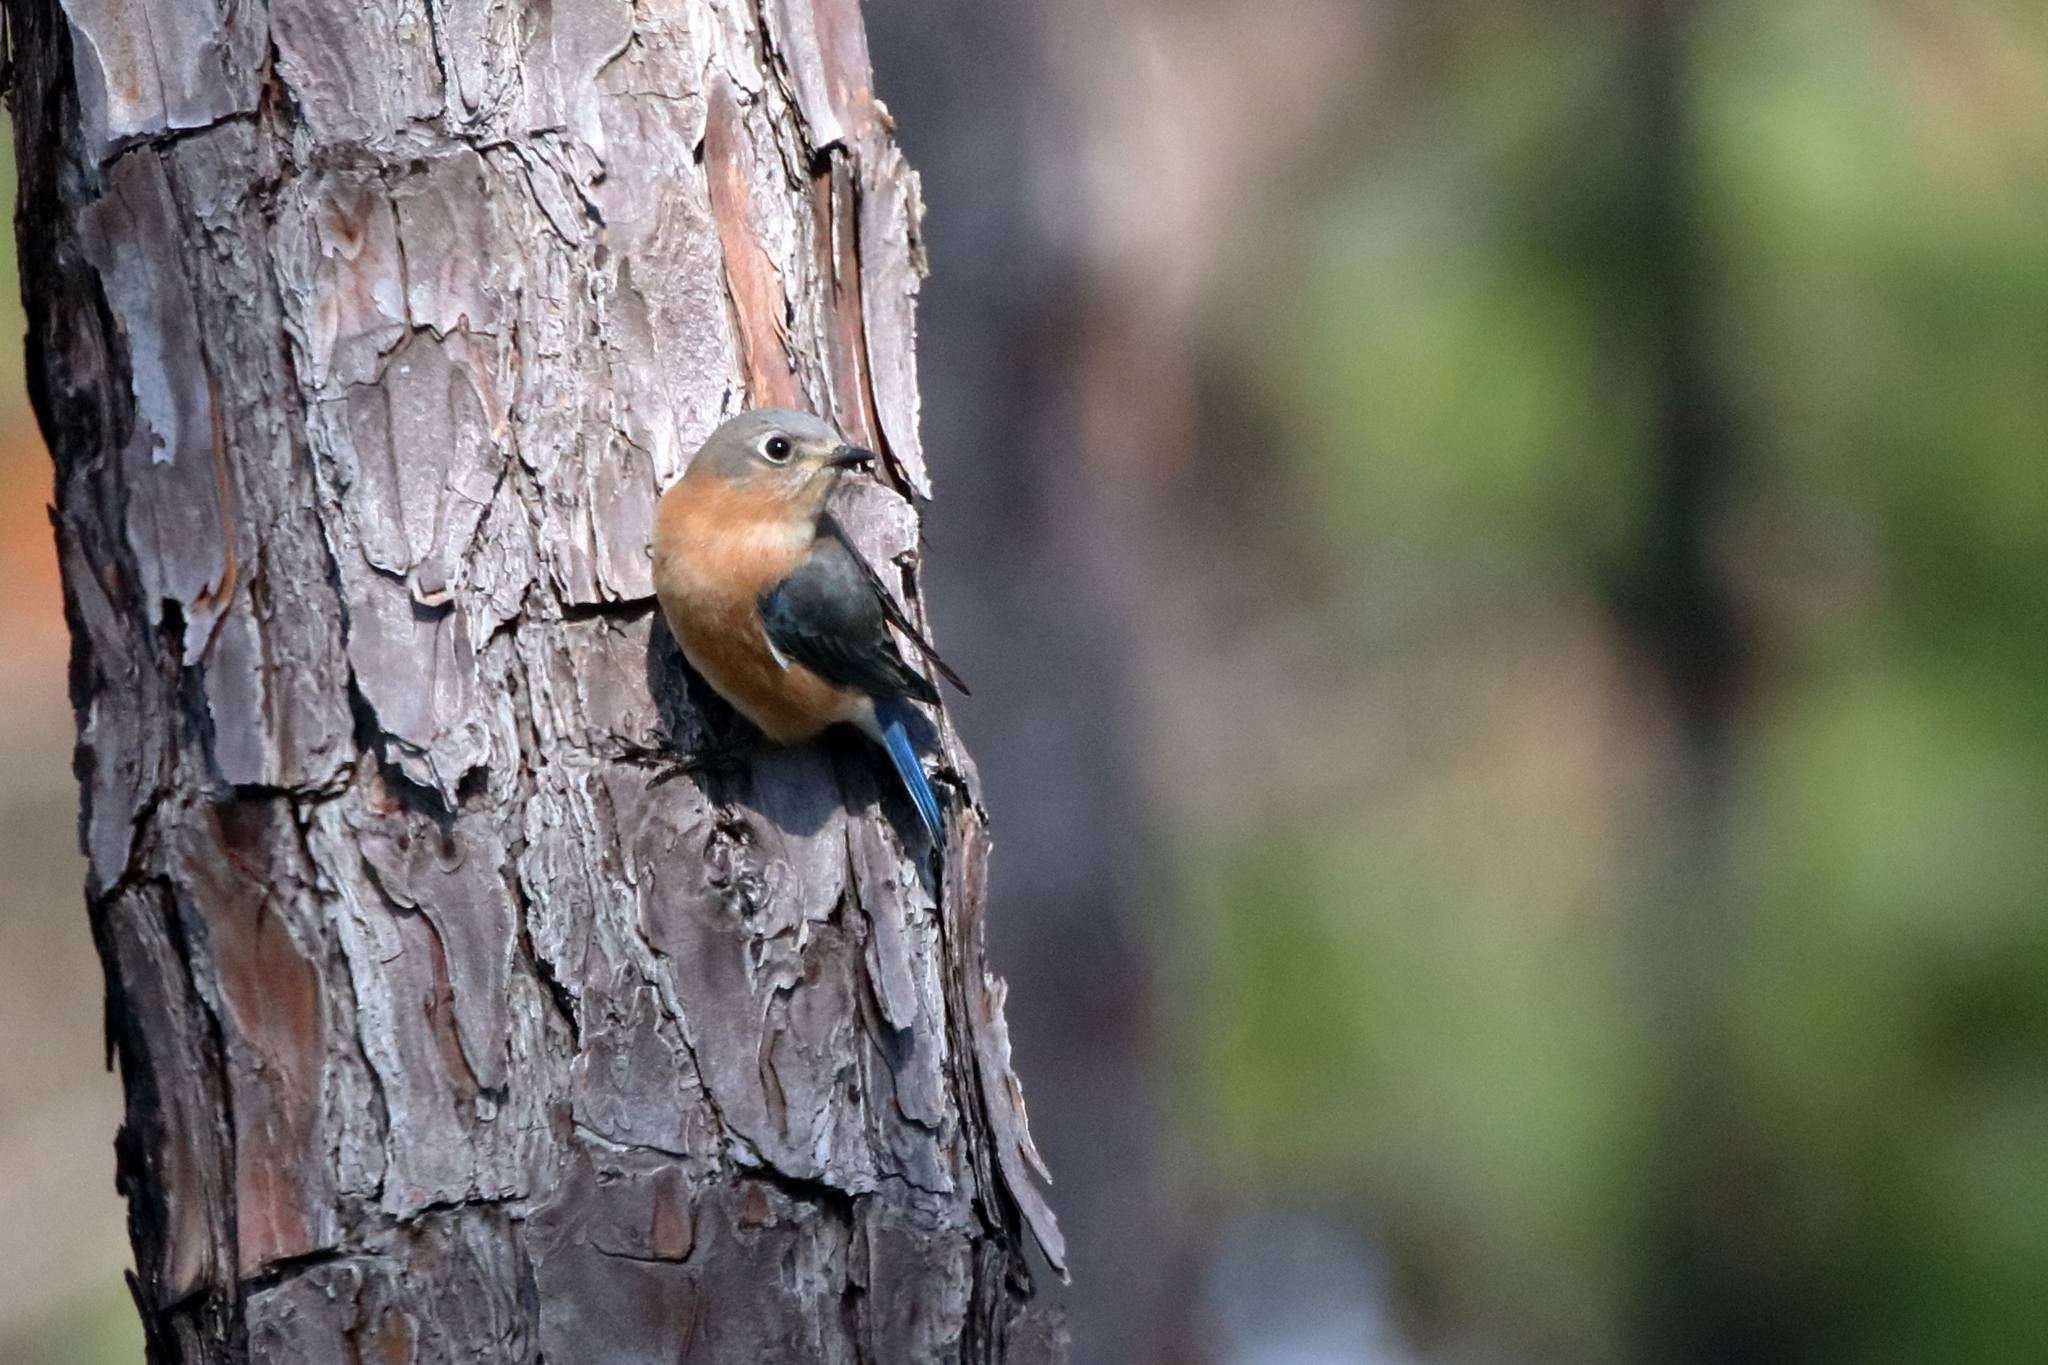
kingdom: Animalia
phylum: Chordata
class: Aves
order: Passeriformes
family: Turdidae
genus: Sialia
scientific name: Sialia sialis
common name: Eastern bluebird
